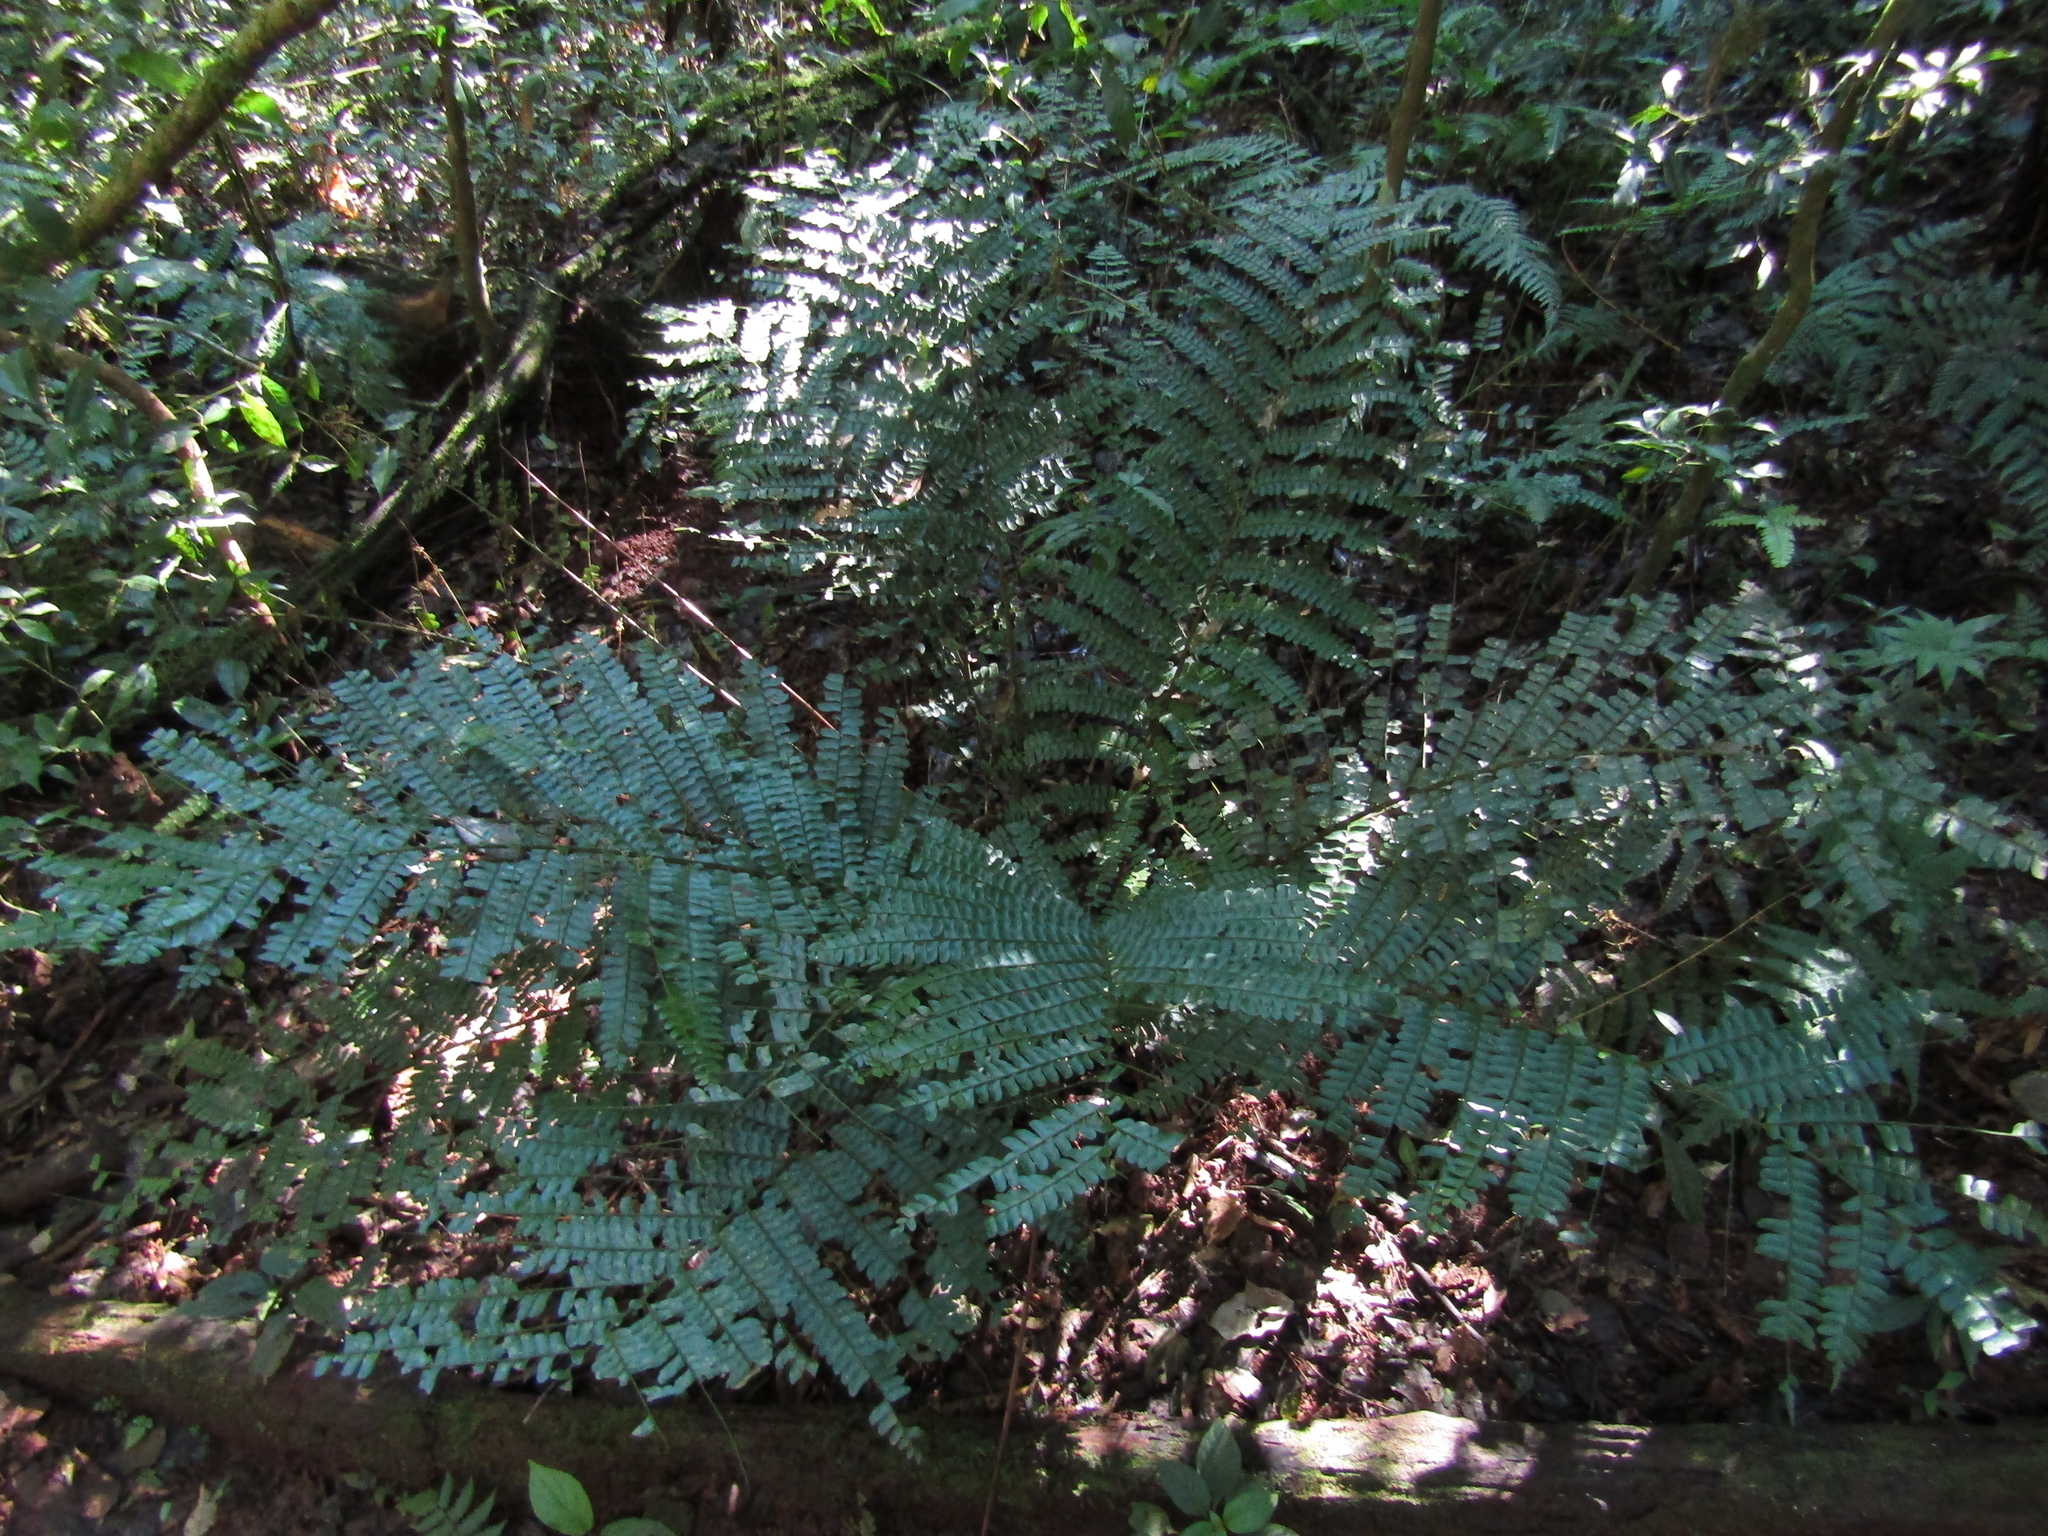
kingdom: Plantae
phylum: Tracheophyta
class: Polypodiopsida
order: Polypodiales
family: Didymochlaenaceae
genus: Didymochlaena
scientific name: Didymochlaena truncatula
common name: Mahogany fern
